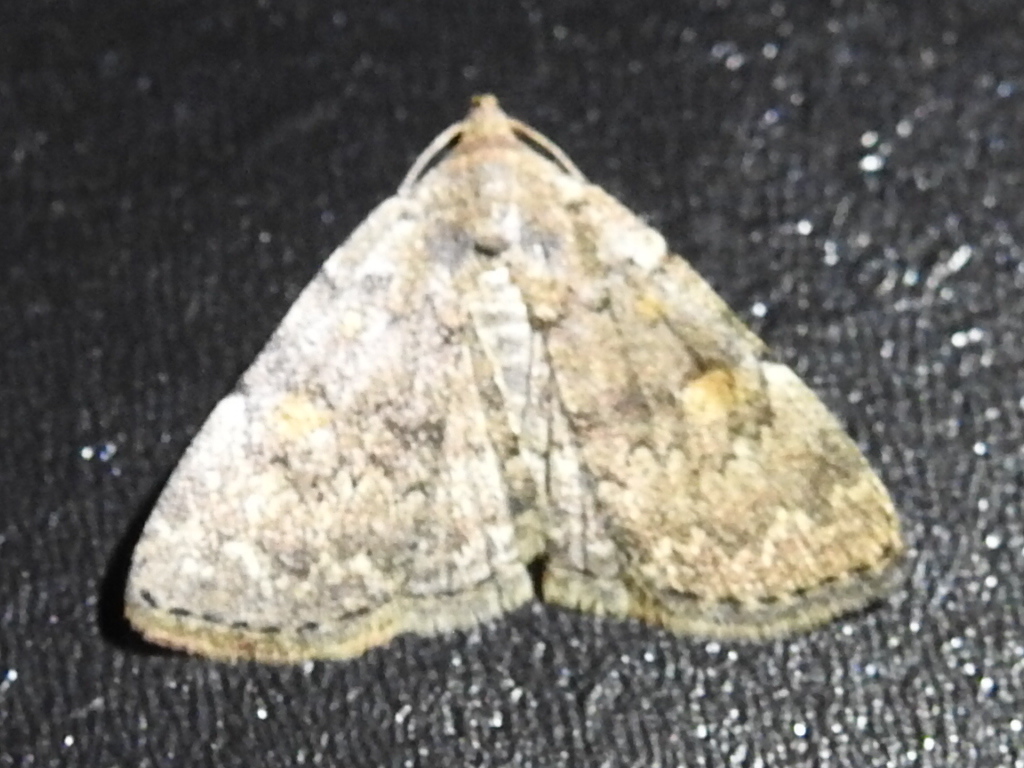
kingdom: Animalia
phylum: Arthropoda
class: Insecta
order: Lepidoptera
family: Erebidae
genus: Idia
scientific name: Idia aemula
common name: Common idia moth
